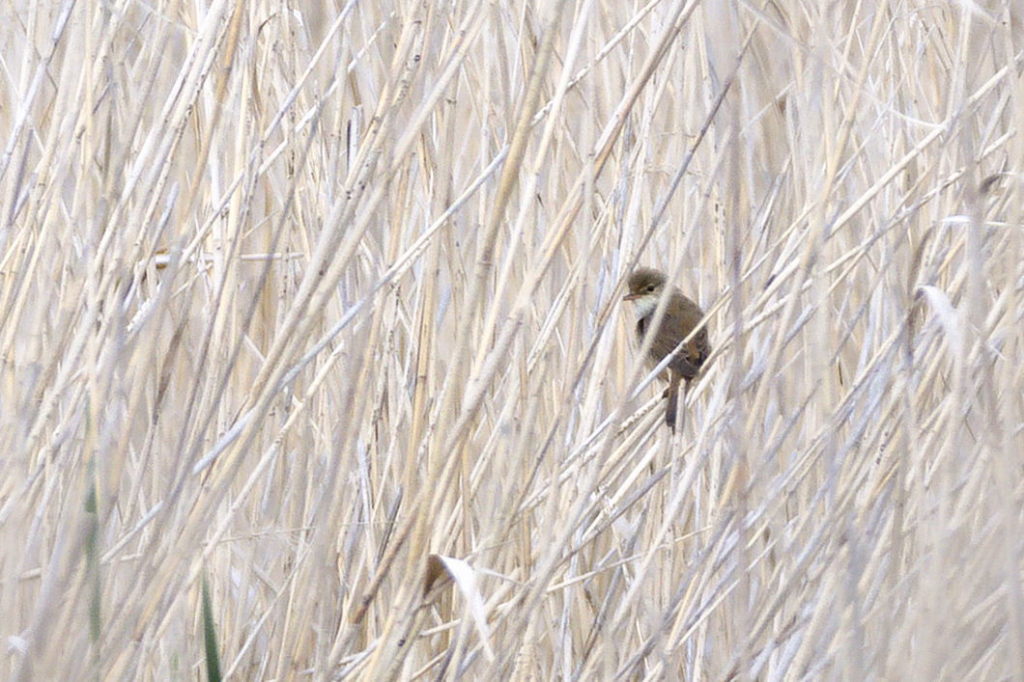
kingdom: Animalia
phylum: Chordata
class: Aves
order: Passeriformes
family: Acrocephalidae
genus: Acrocephalus
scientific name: Acrocephalus scirpaceus
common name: Eurasian reed warbler
